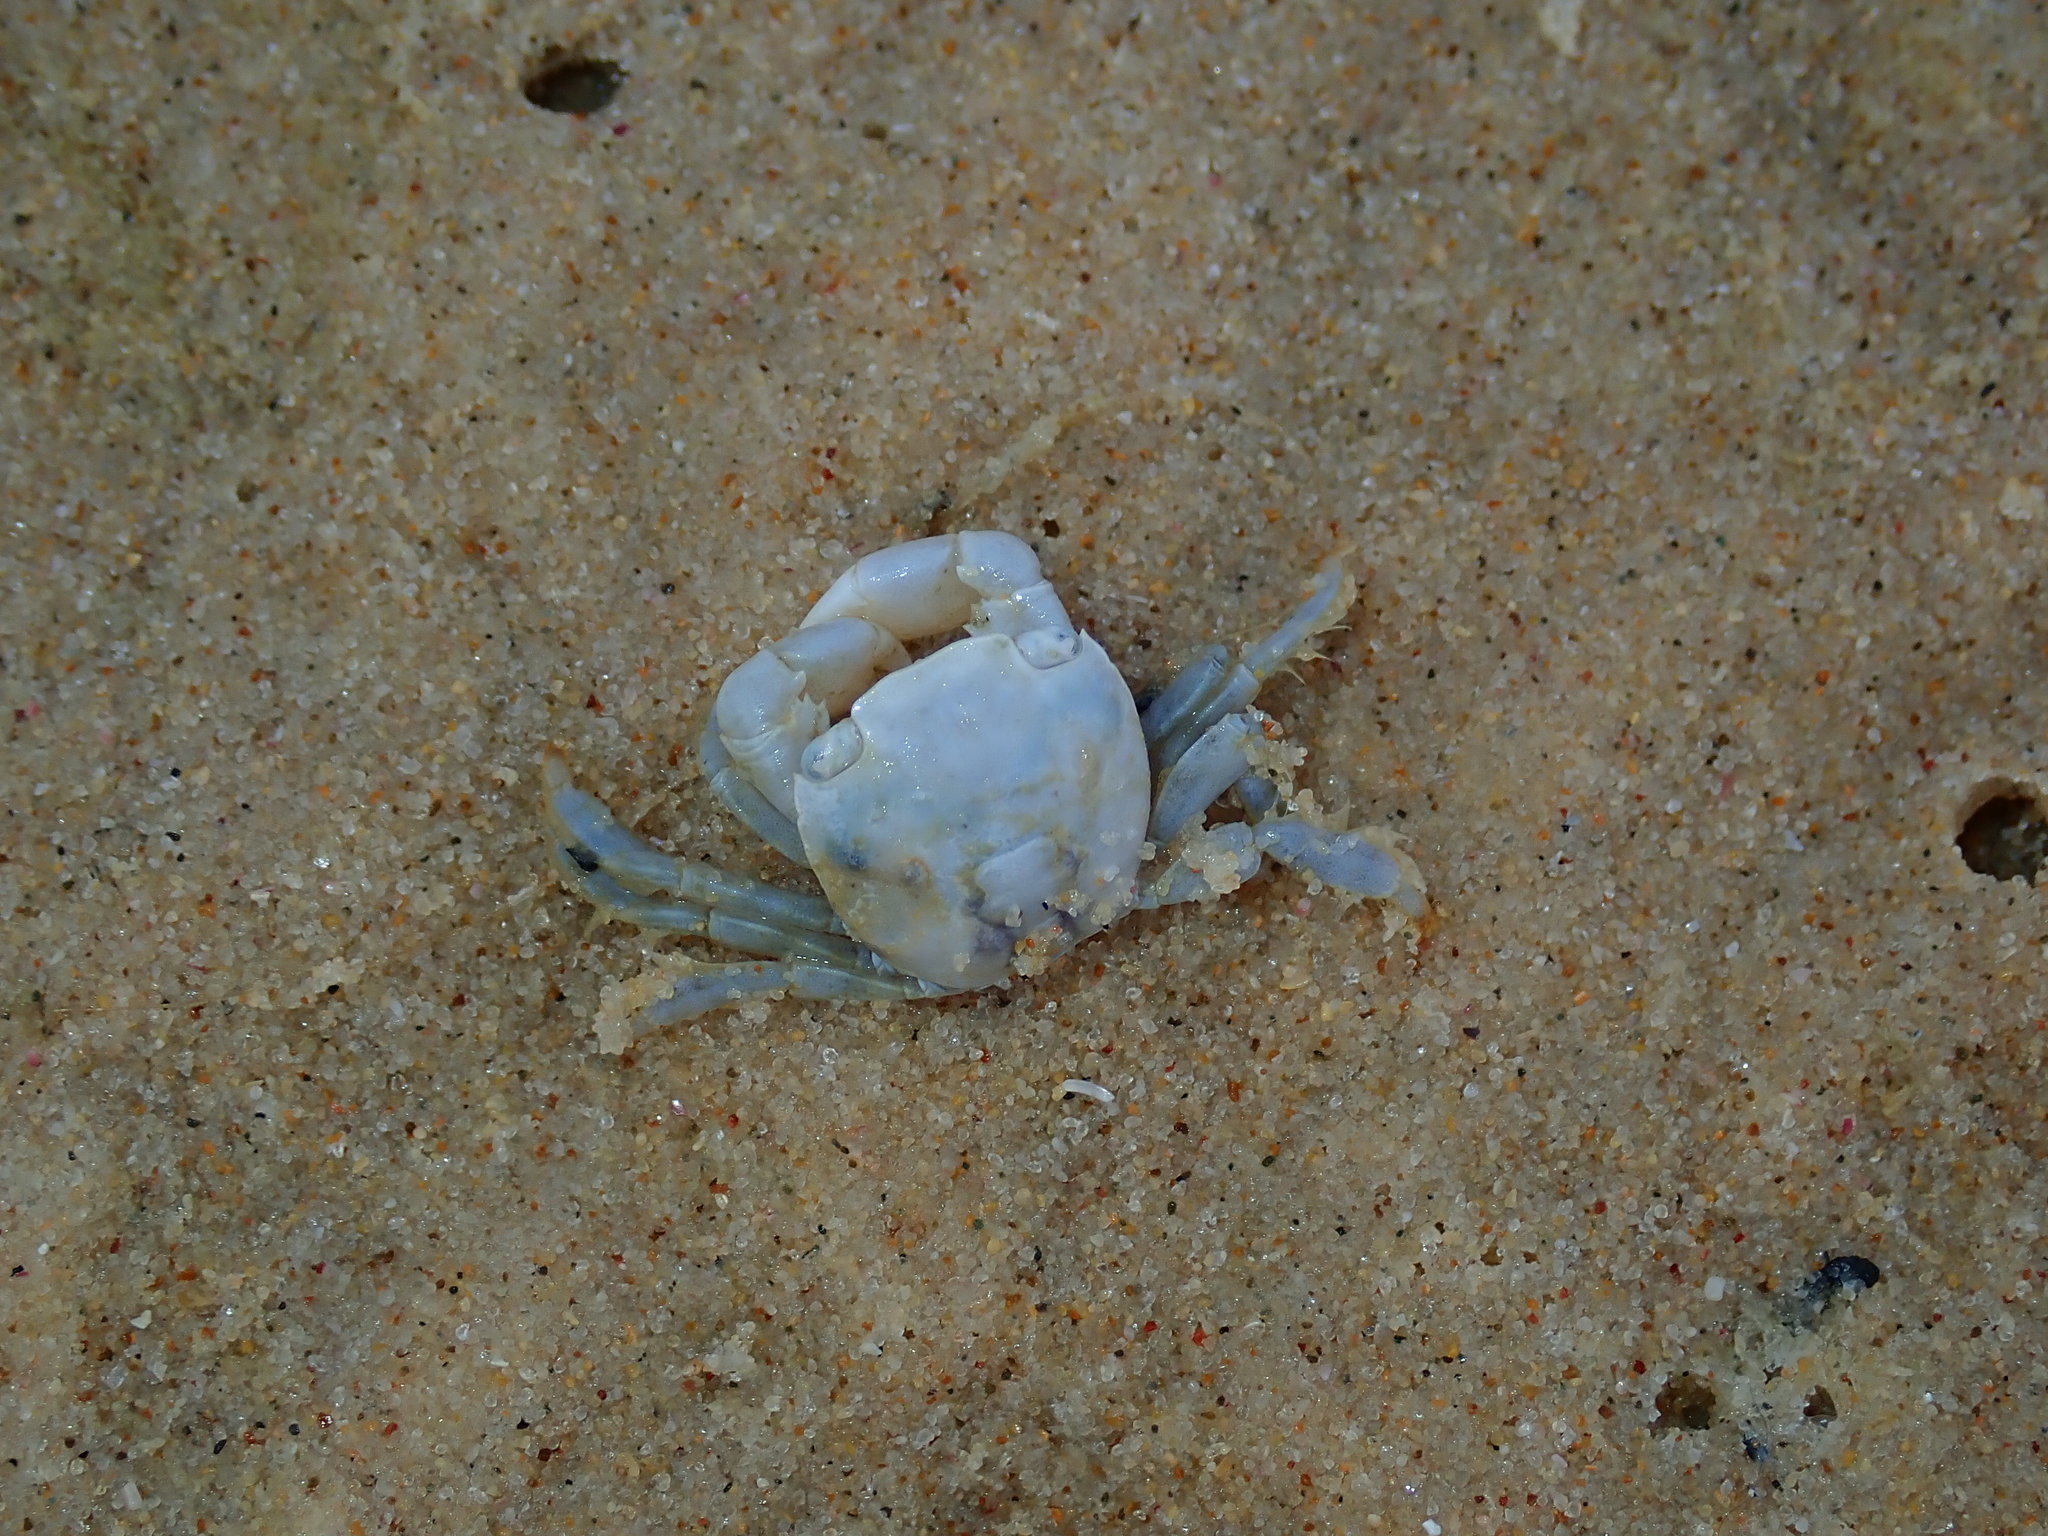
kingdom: Animalia
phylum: Arthropoda
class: Malacostraca
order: Decapoda
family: Grapsidae
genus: Planes
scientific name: Planes minutus
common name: Gulf weed crab
